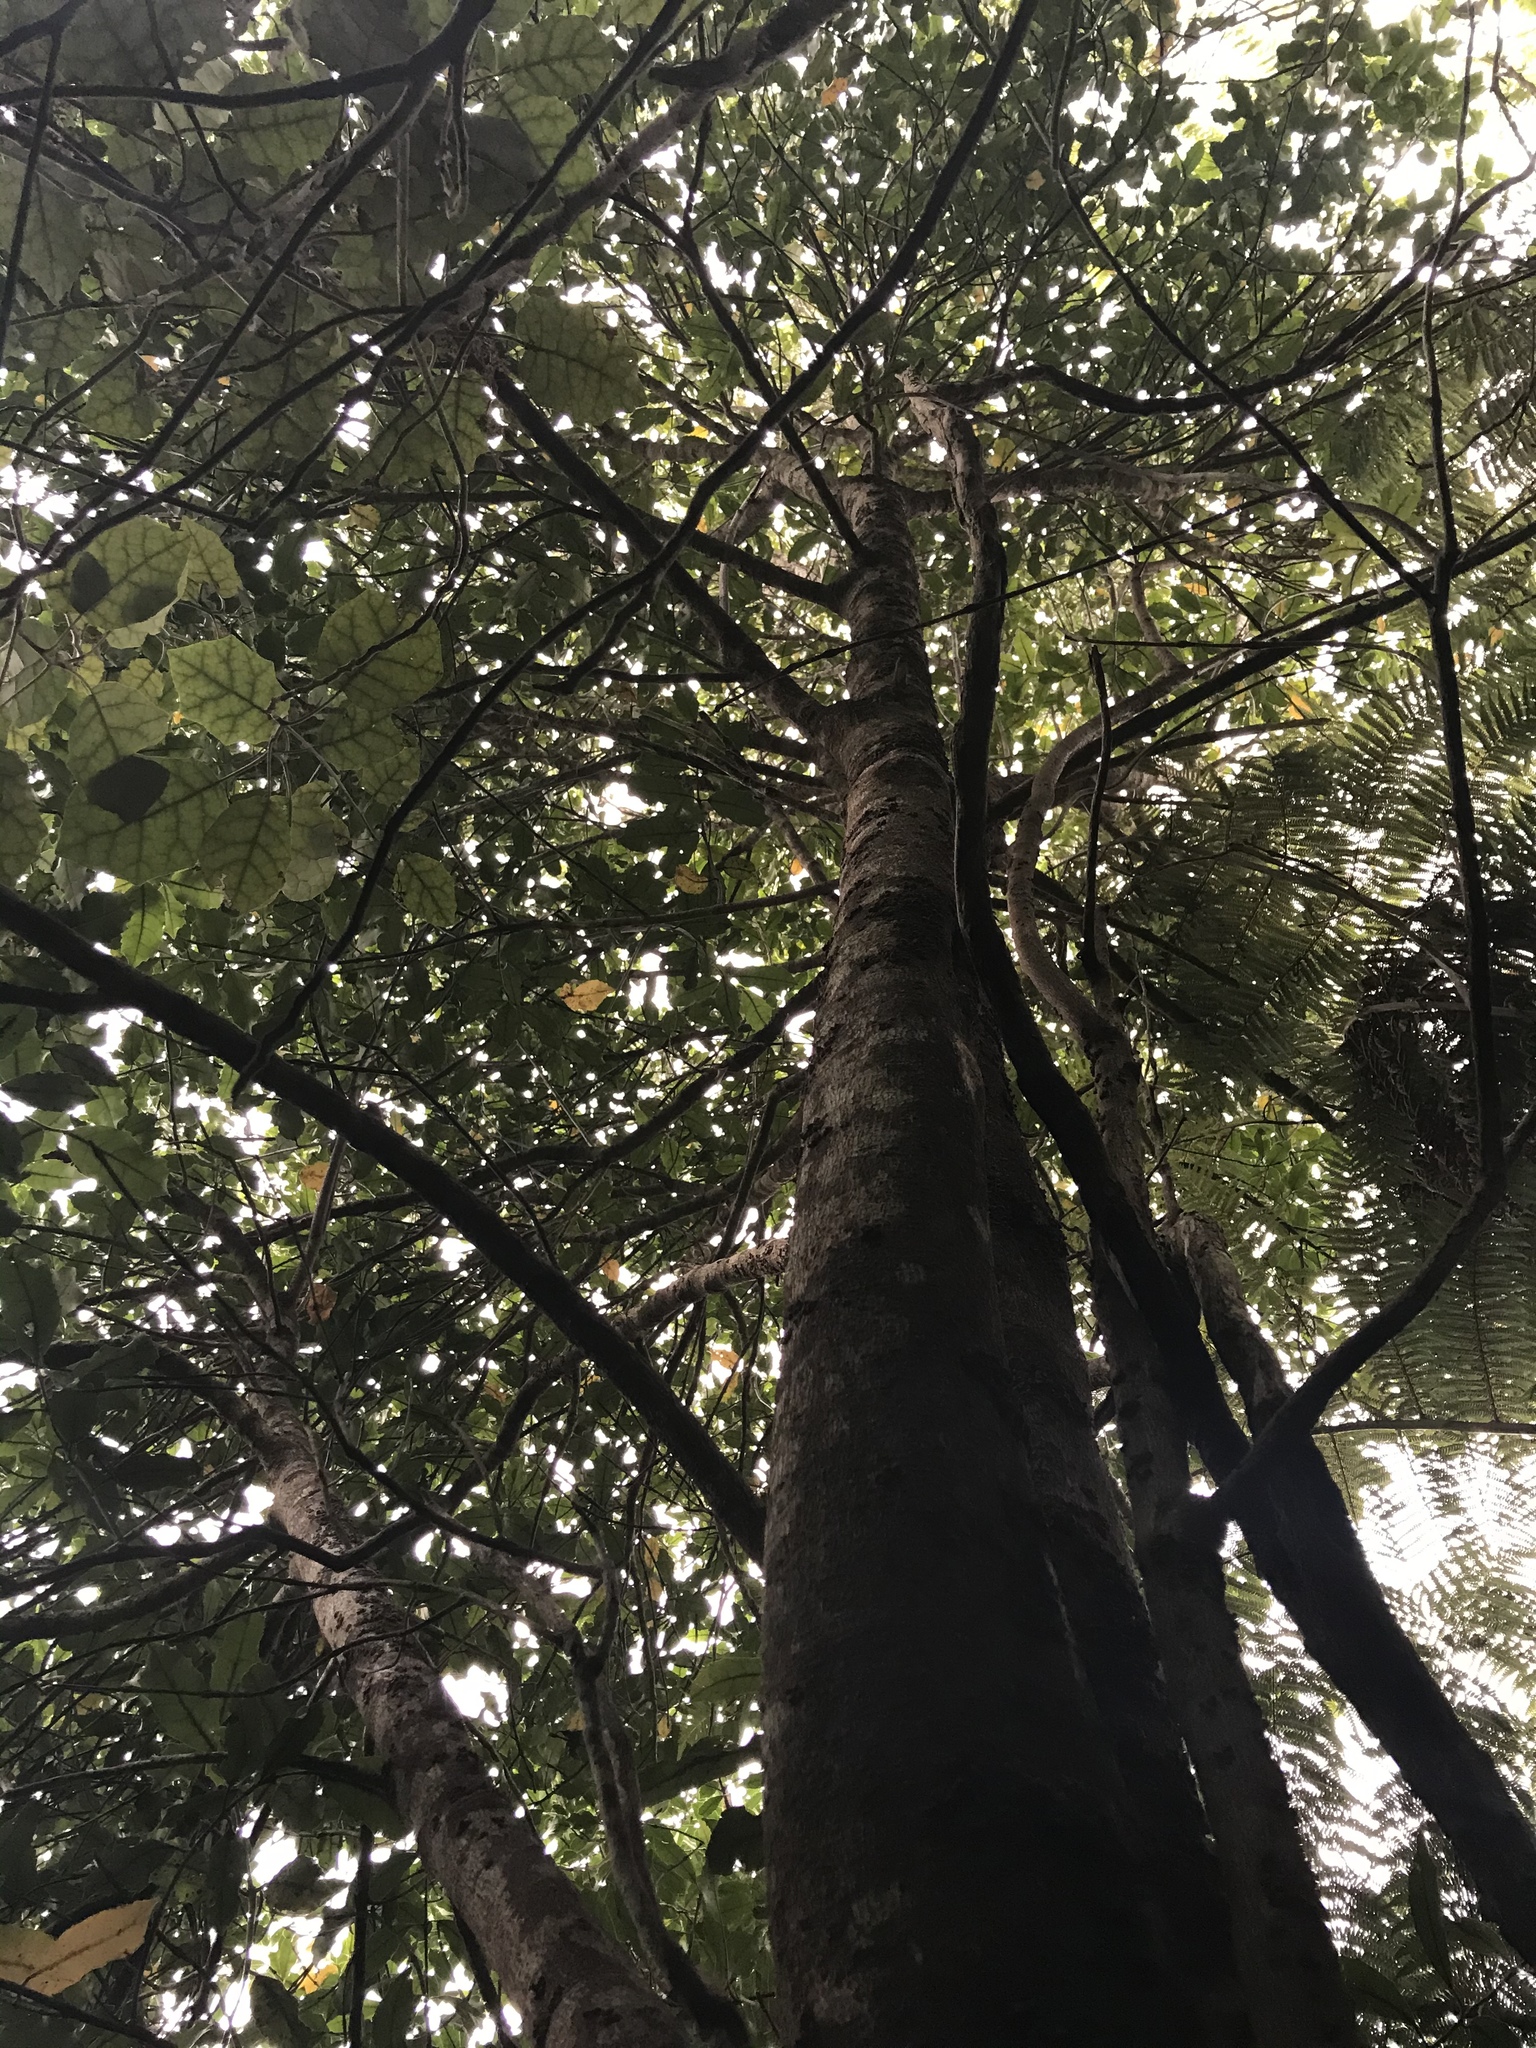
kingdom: Plantae
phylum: Tracheophyta
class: Magnoliopsida
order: Laurales
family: Monimiaceae
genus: Hedycarya
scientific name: Hedycarya arborea
